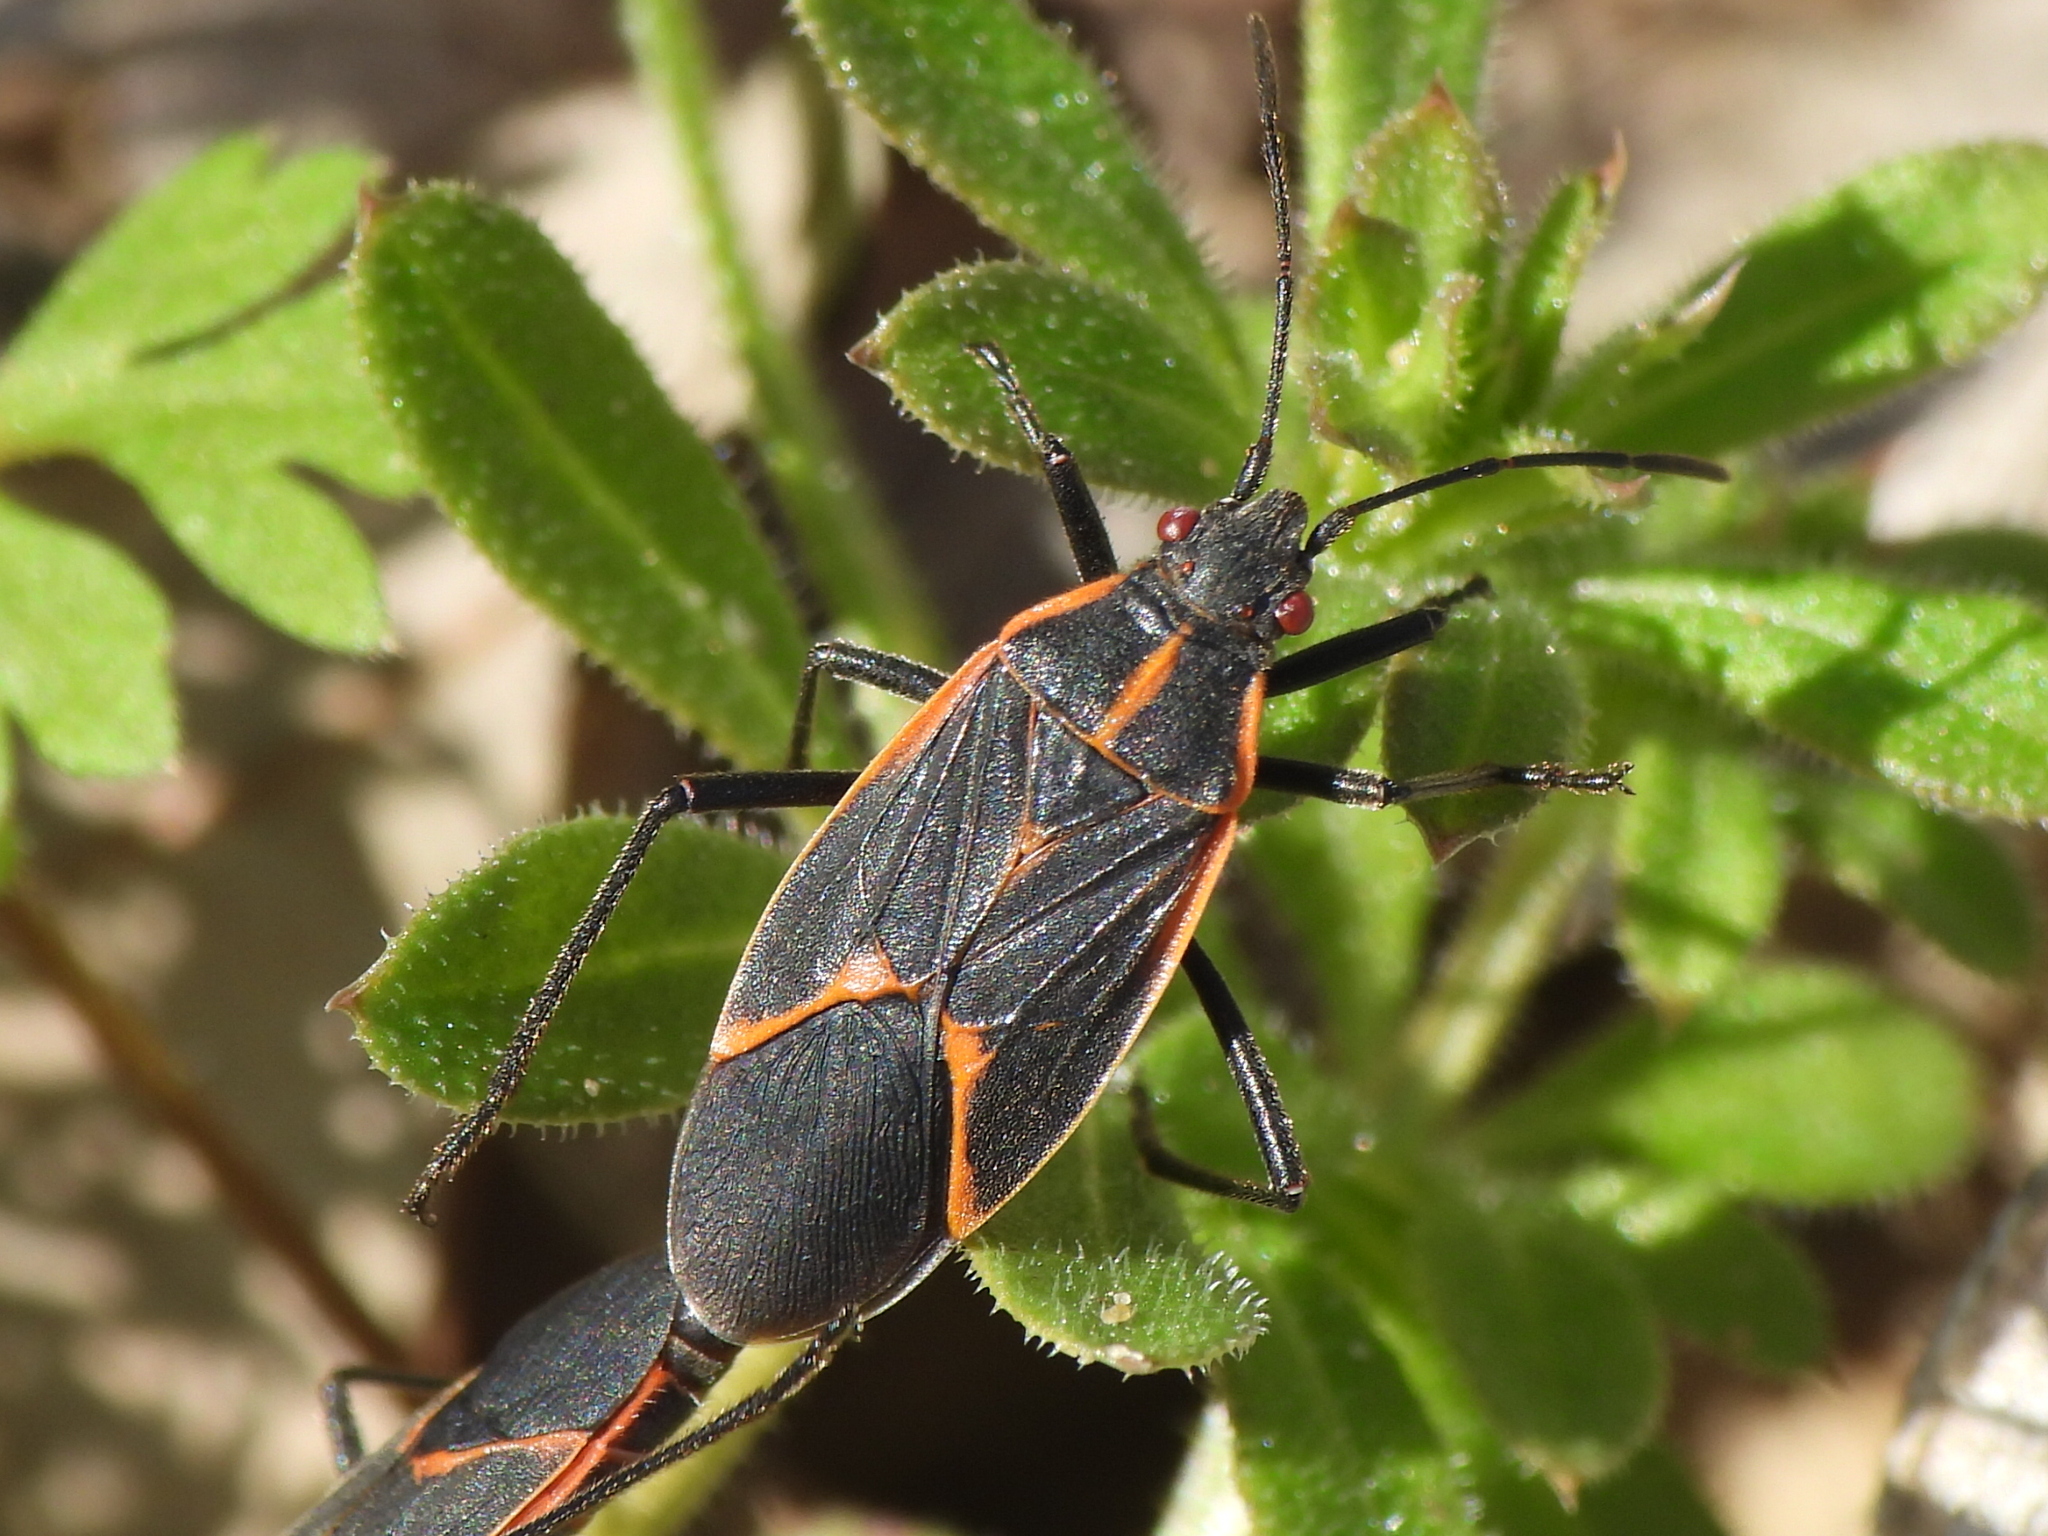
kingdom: Animalia
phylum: Arthropoda
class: Insecta
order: Hemiptera
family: Rhopalidae
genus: Boisea
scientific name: Boisea trivittata
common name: Boxelder bug
